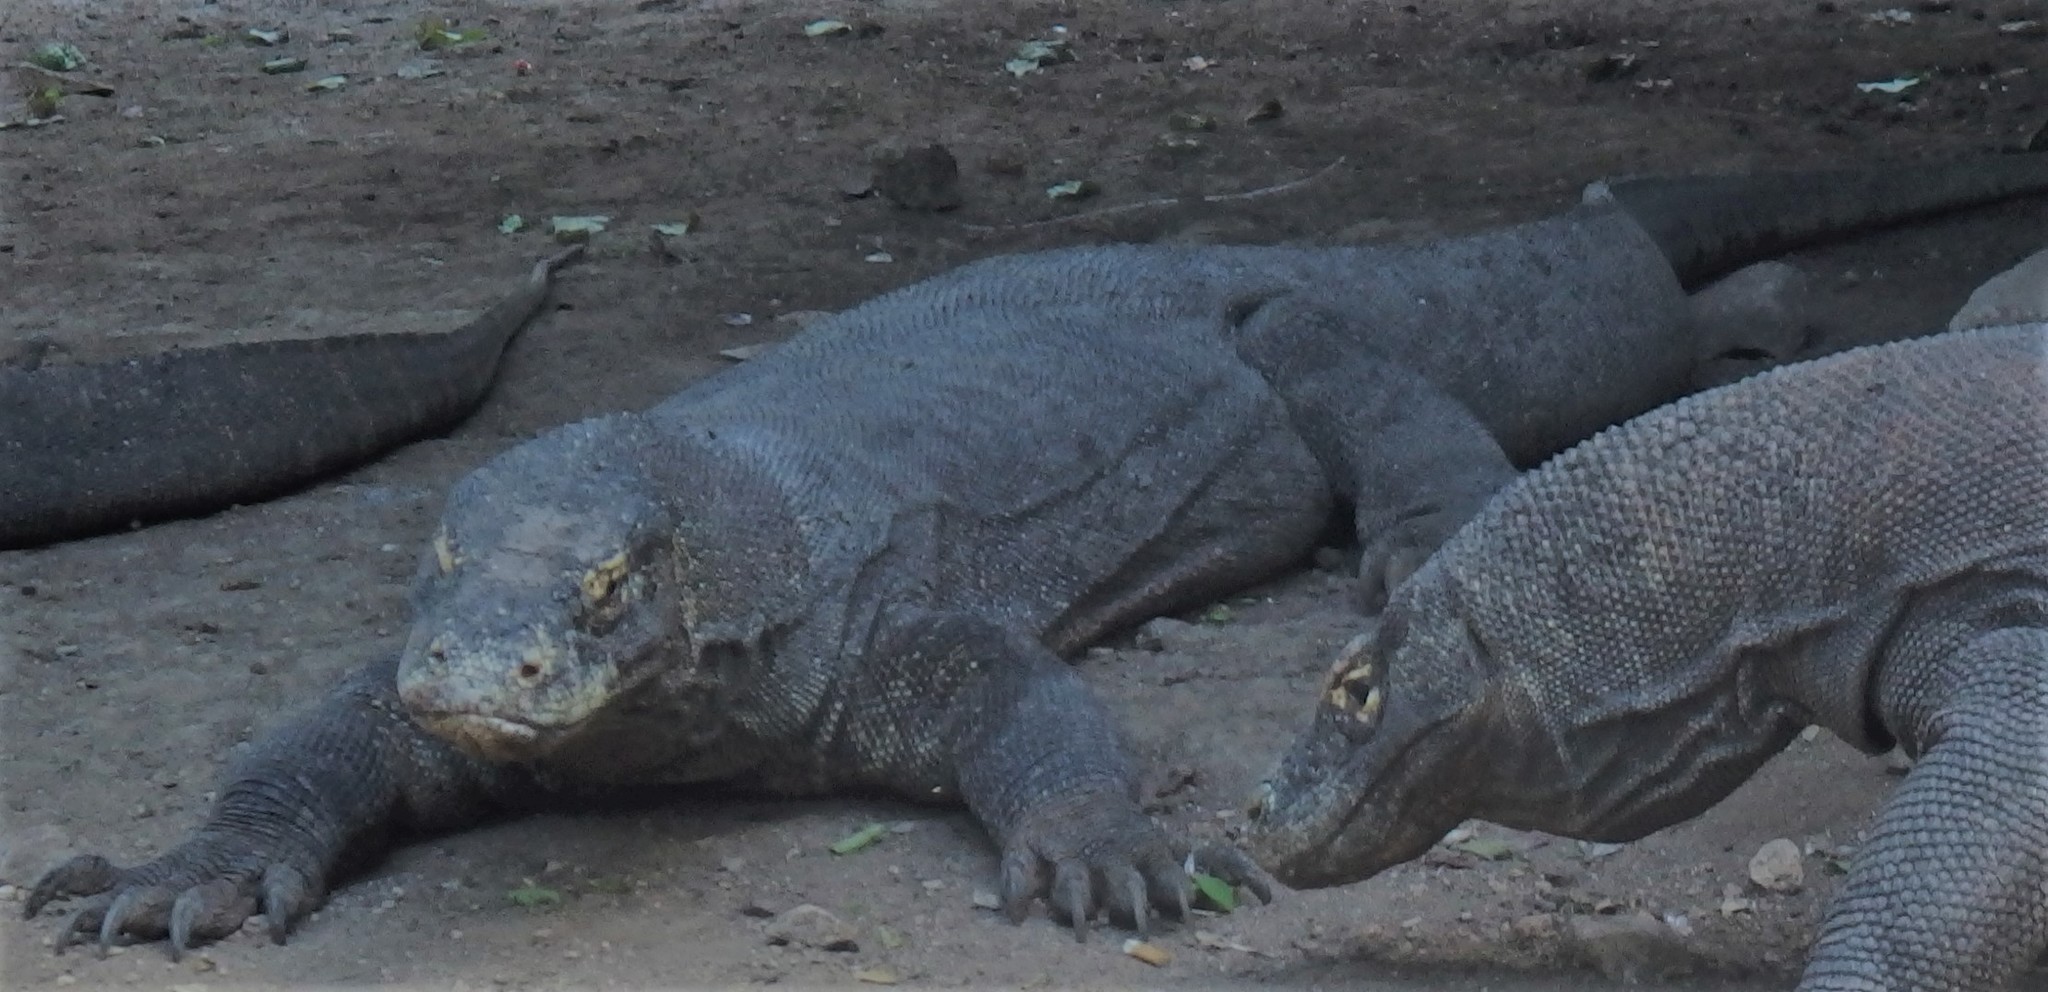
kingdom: Animalia
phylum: Chordata
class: Squamata
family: Varanidae
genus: Varanus
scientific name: Varanus komodoensis
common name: Komodo dragon
